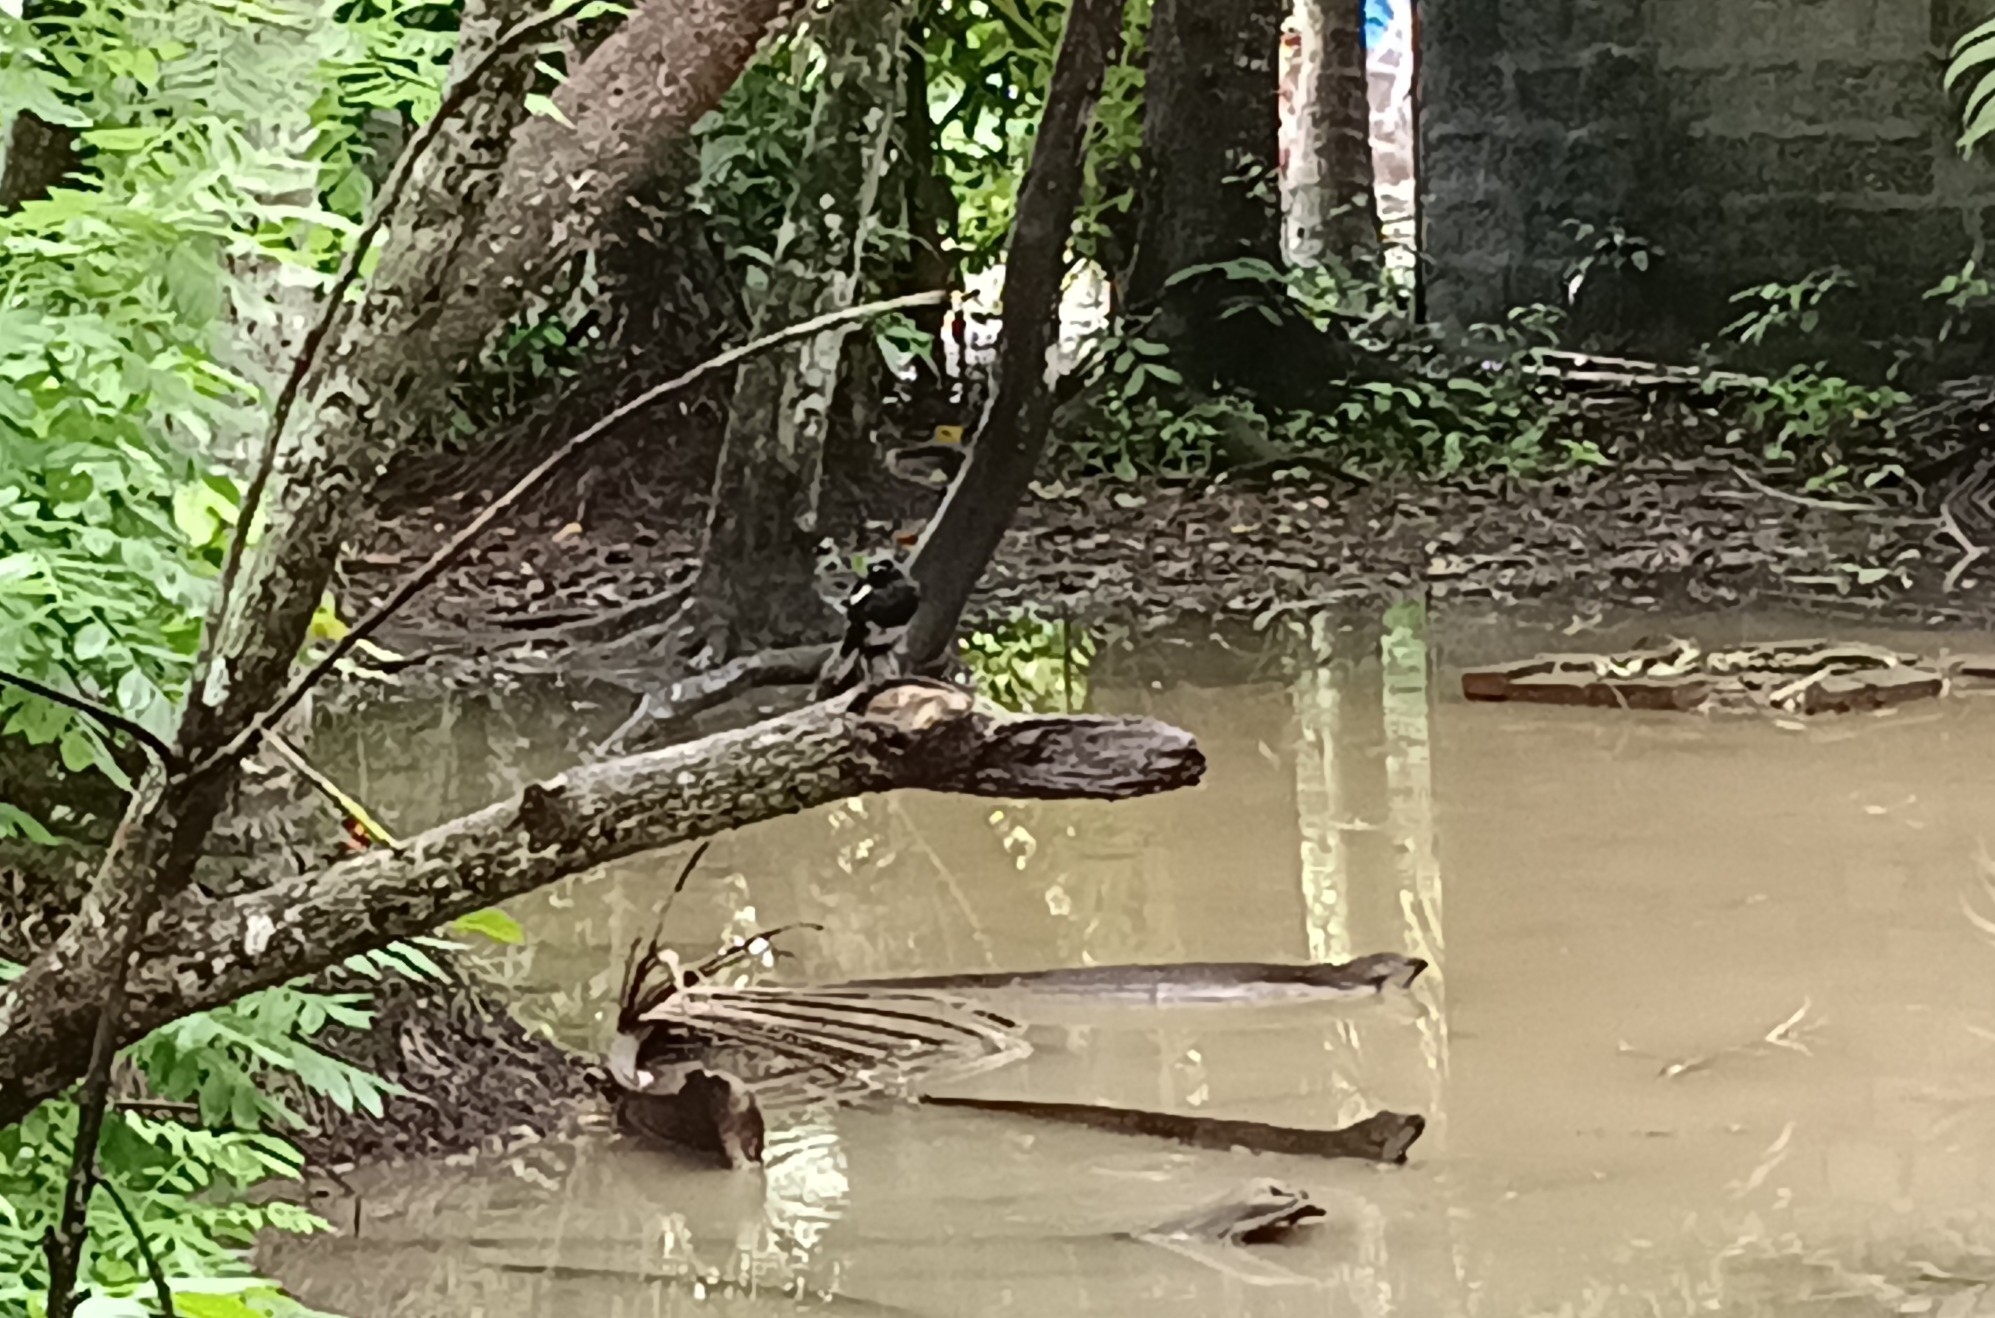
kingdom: Animalia
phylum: Chordata
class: Aves
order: Passeriformes
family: Muscicapidae
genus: Copsychus
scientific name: Copsychus saularis
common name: Oriental magpie-robin
